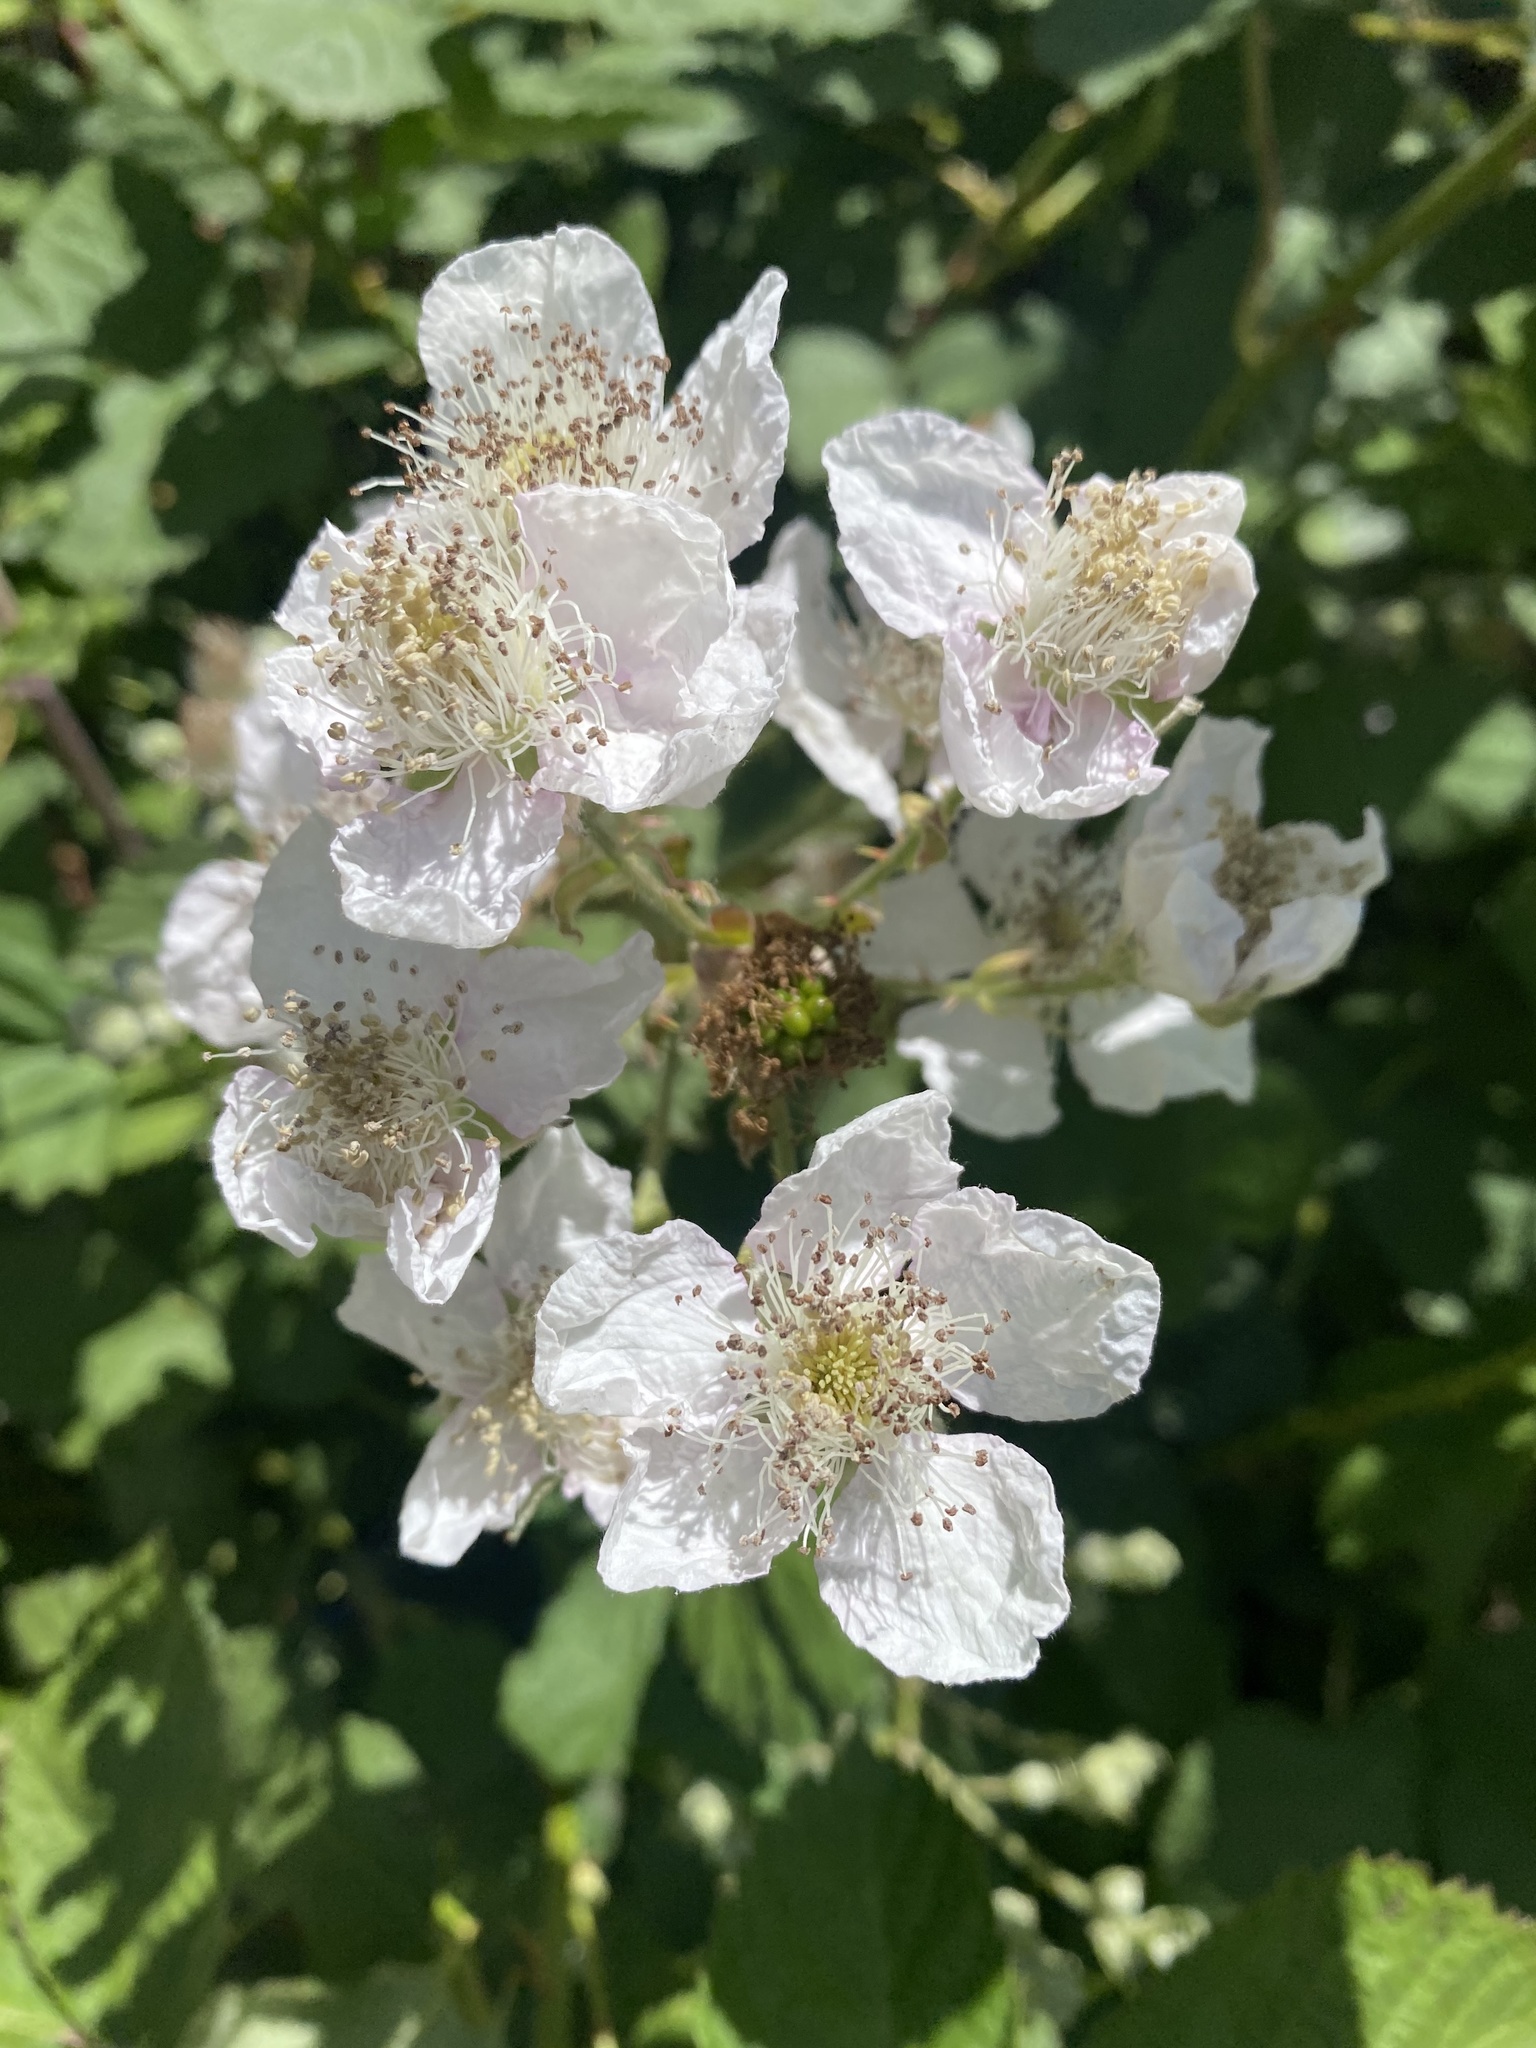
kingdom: Plantae
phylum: Tracheophyta
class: Magnoliopsida
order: Rosales
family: Rosaceae
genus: Rubus
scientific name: Rubus bifrons
